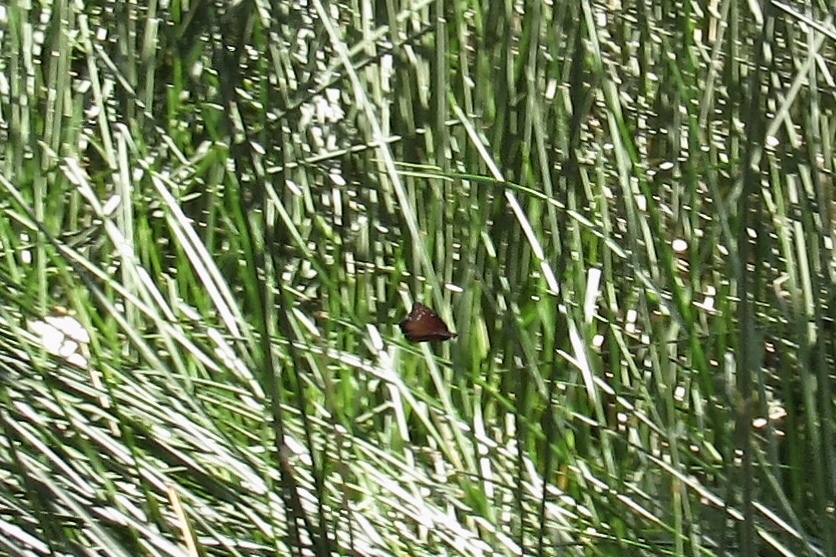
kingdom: Animalia
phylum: Arthropoda
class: Insecta
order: Lepidoptera
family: Nymphalidae
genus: Danaus
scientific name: Danaus gilippus
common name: Queen
